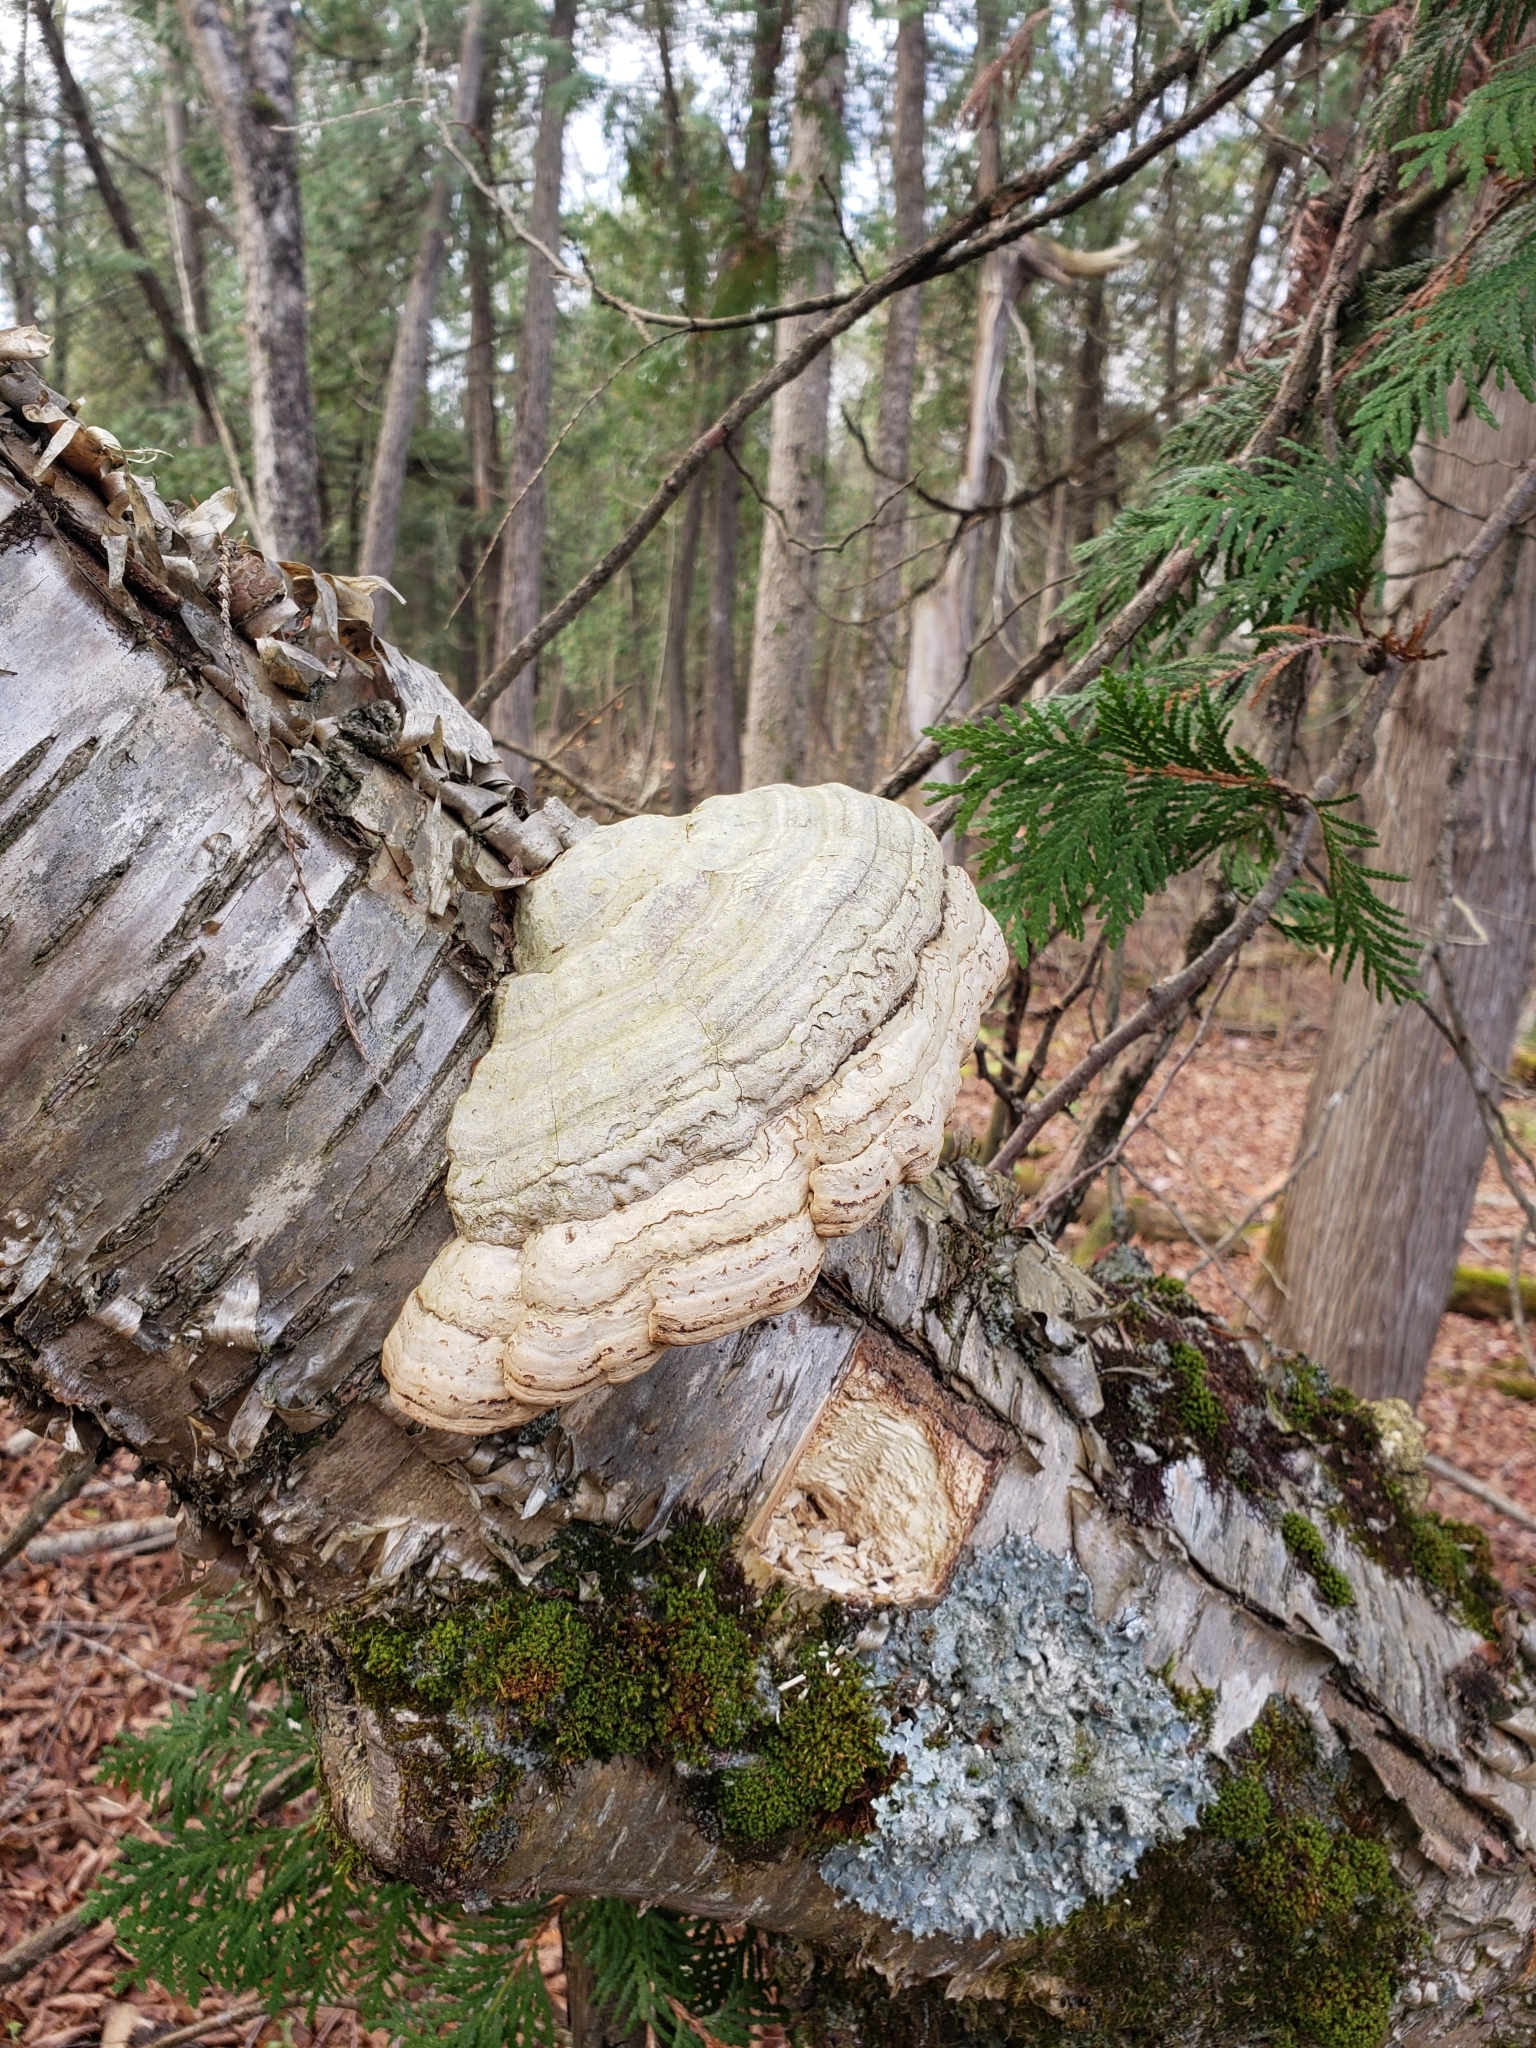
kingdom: Fungi
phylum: Basidiomycota
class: Agaricomycetes
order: Polyporales
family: Polyporaceae
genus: Fomes
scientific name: Fomes fomentarius
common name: Hoof fungus
